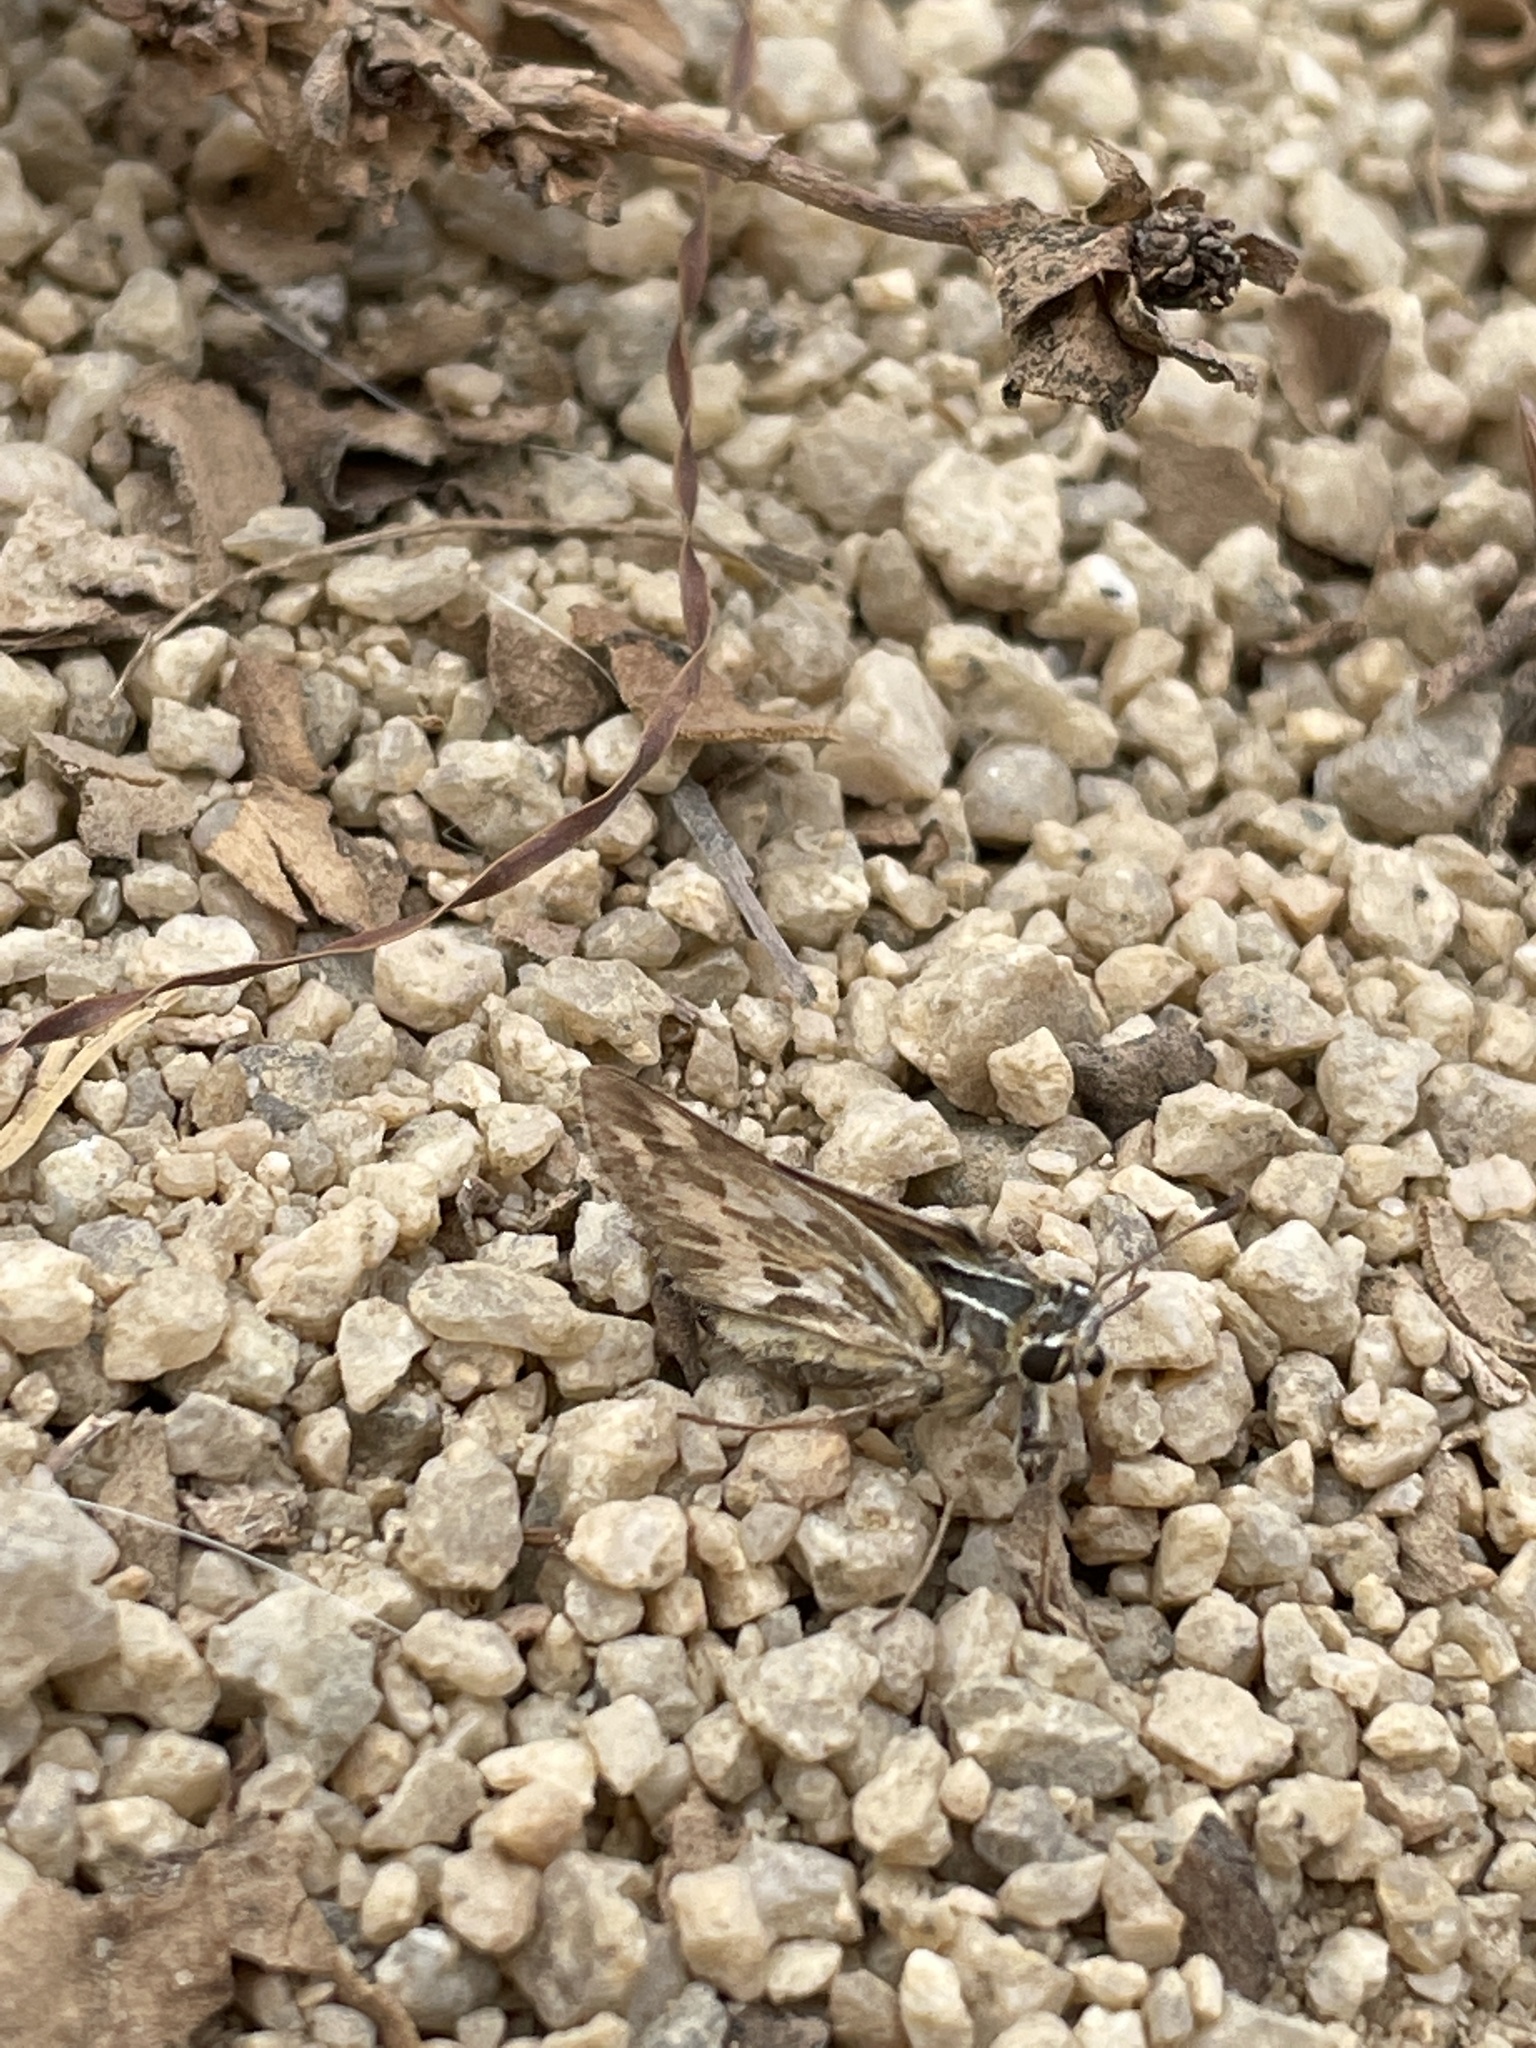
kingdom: Animalia
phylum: Arthropoda
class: Insecta
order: Lepidoptera
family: Hesperiidae
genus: Polites
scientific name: Polites sabuleti
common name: Sandhill skipper
